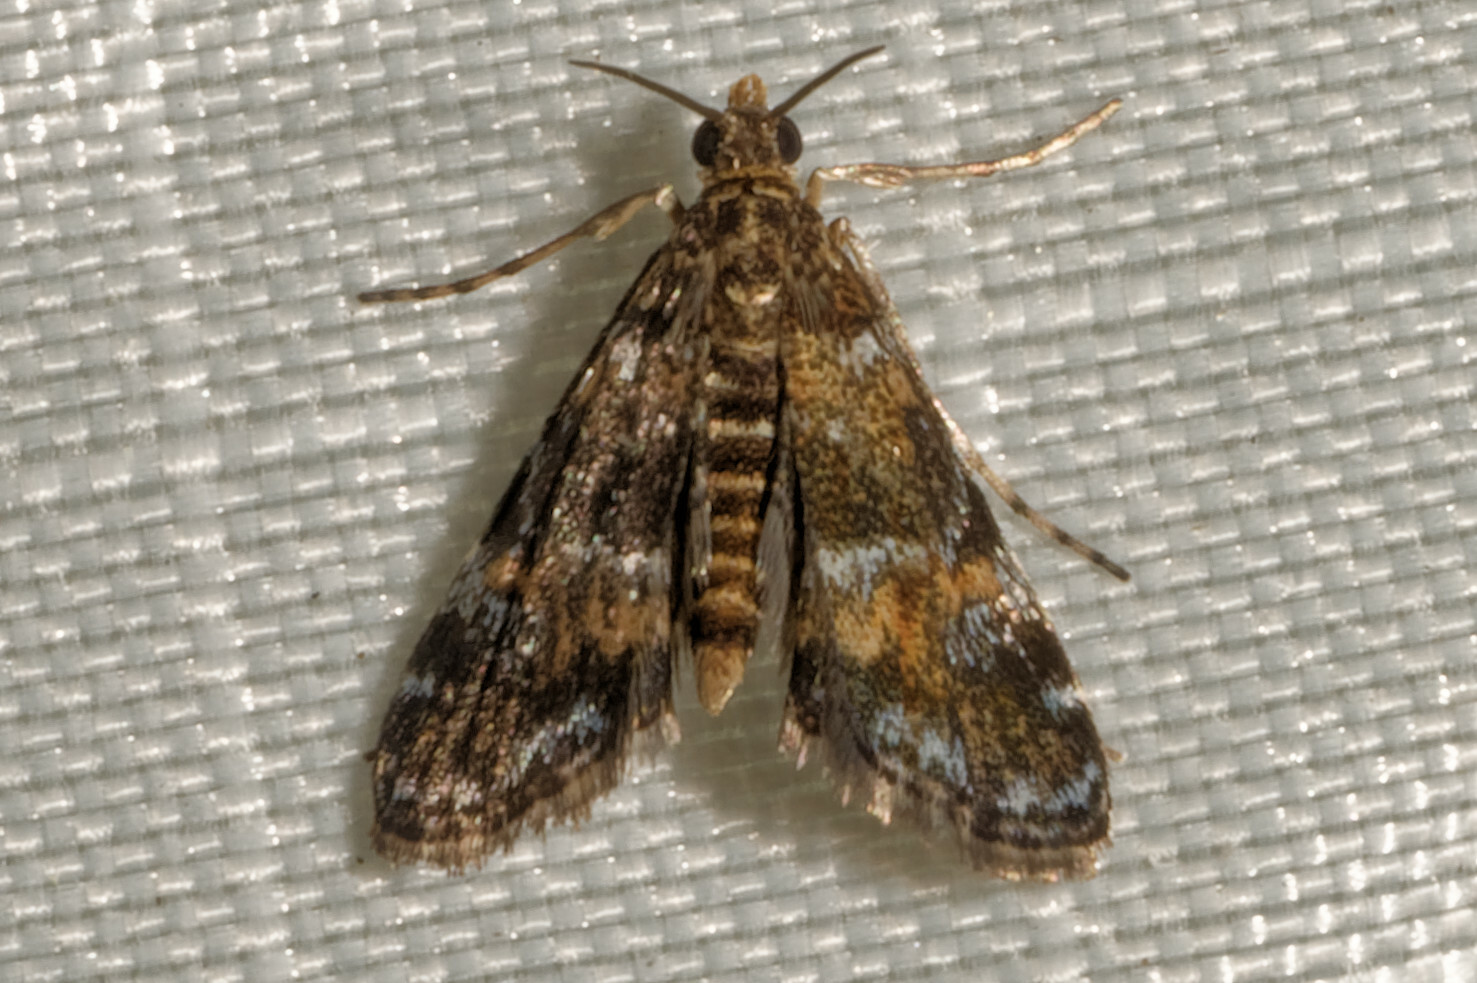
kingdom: Animalia
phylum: Arthropoda
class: Insecta
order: Lepidoptera
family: Crambidae
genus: Elophila
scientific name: Elophila obliteralis
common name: Waterlily leafcutter moth
